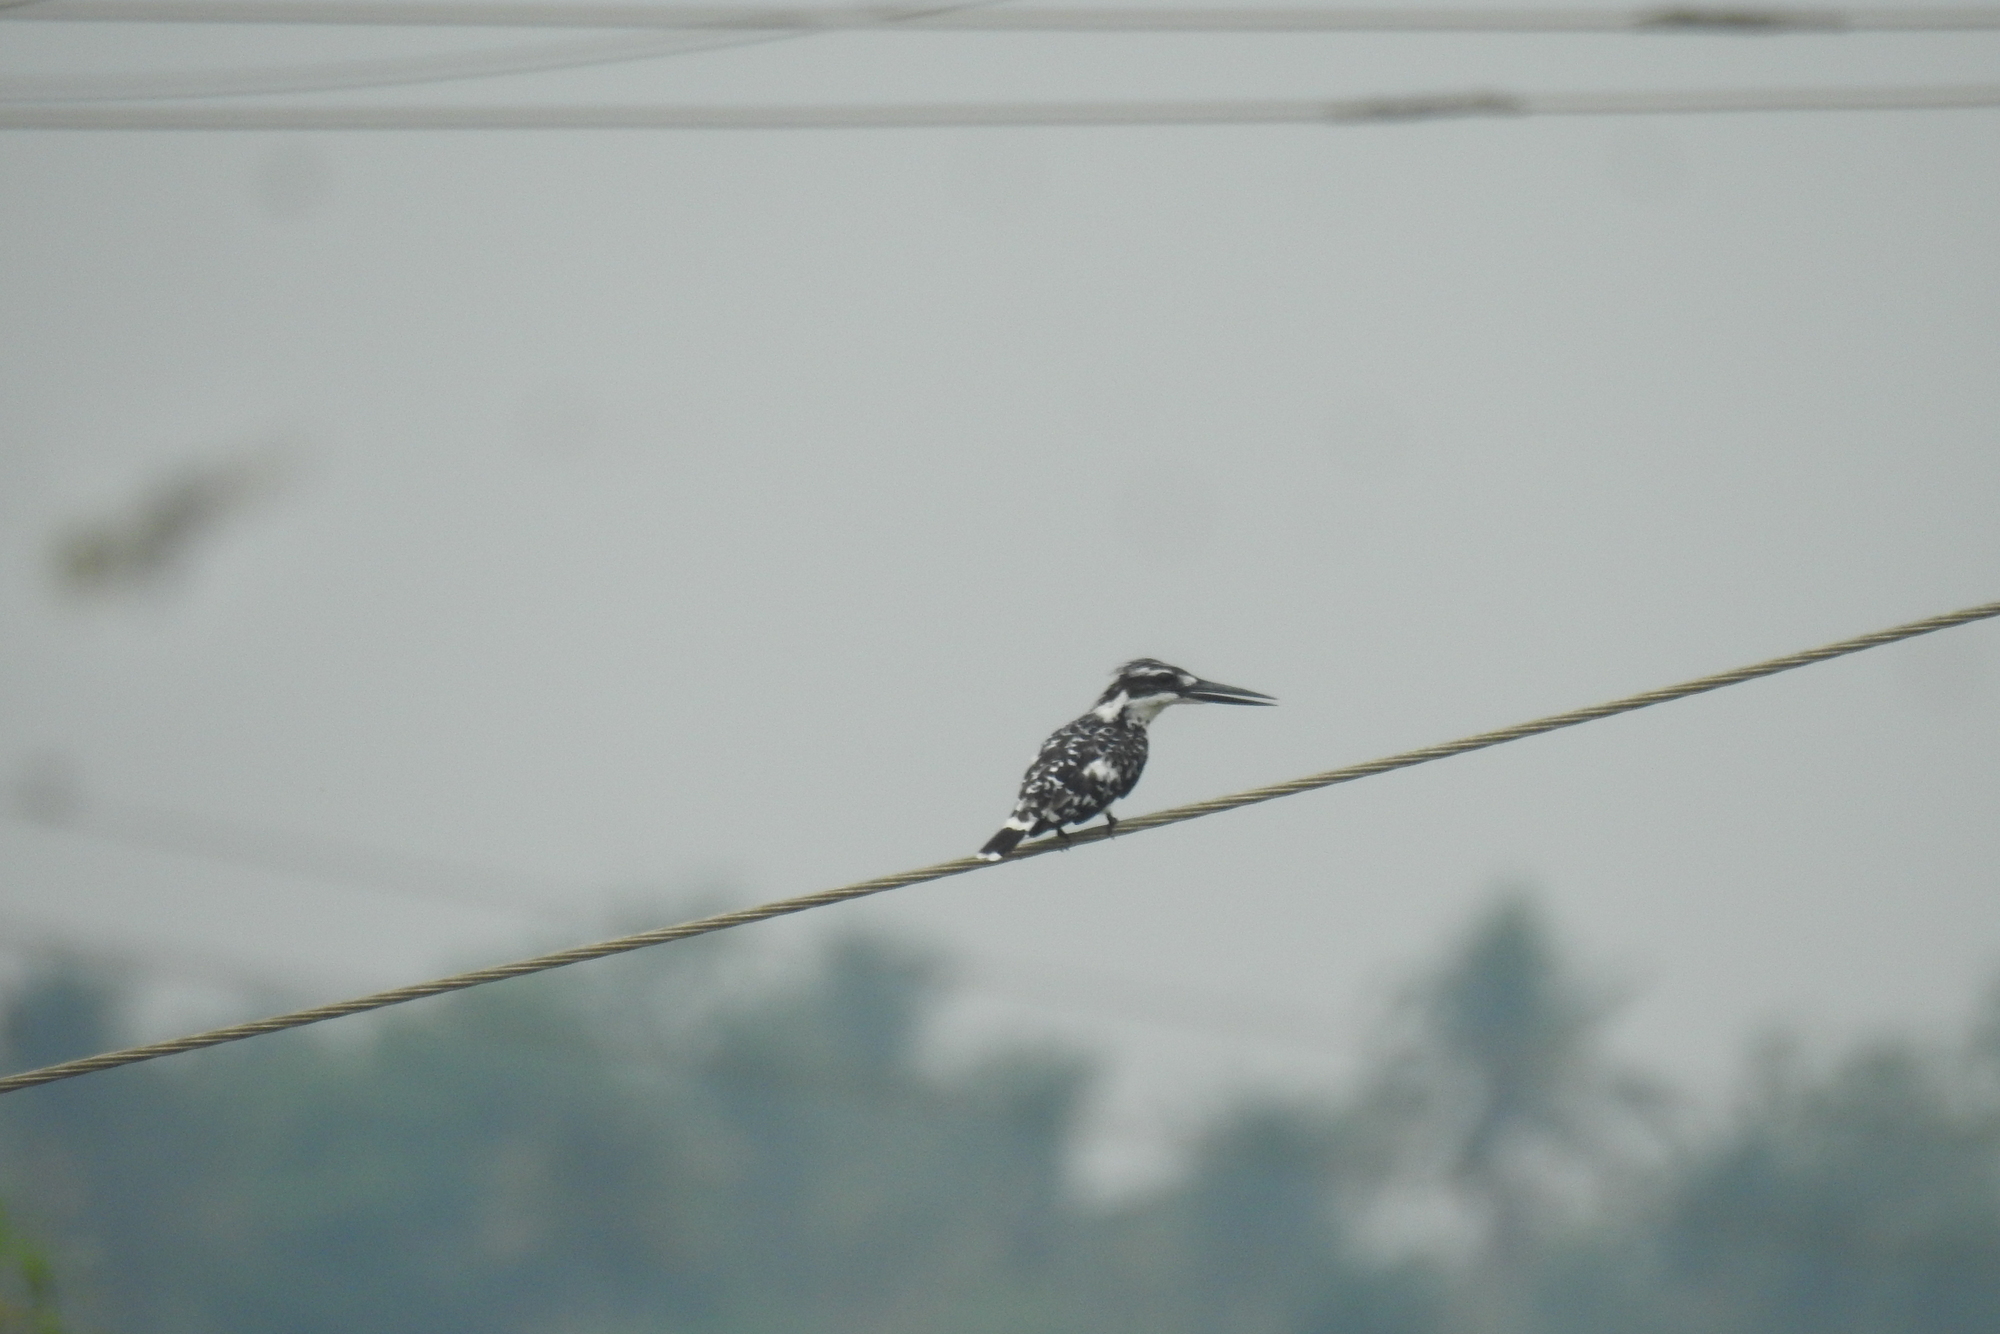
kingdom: Animalia
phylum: Chordata
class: Aves
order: Coraciiformes
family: Alcedinidae
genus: Ceryle
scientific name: Ceryle rudis
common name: Pied kingfisher
